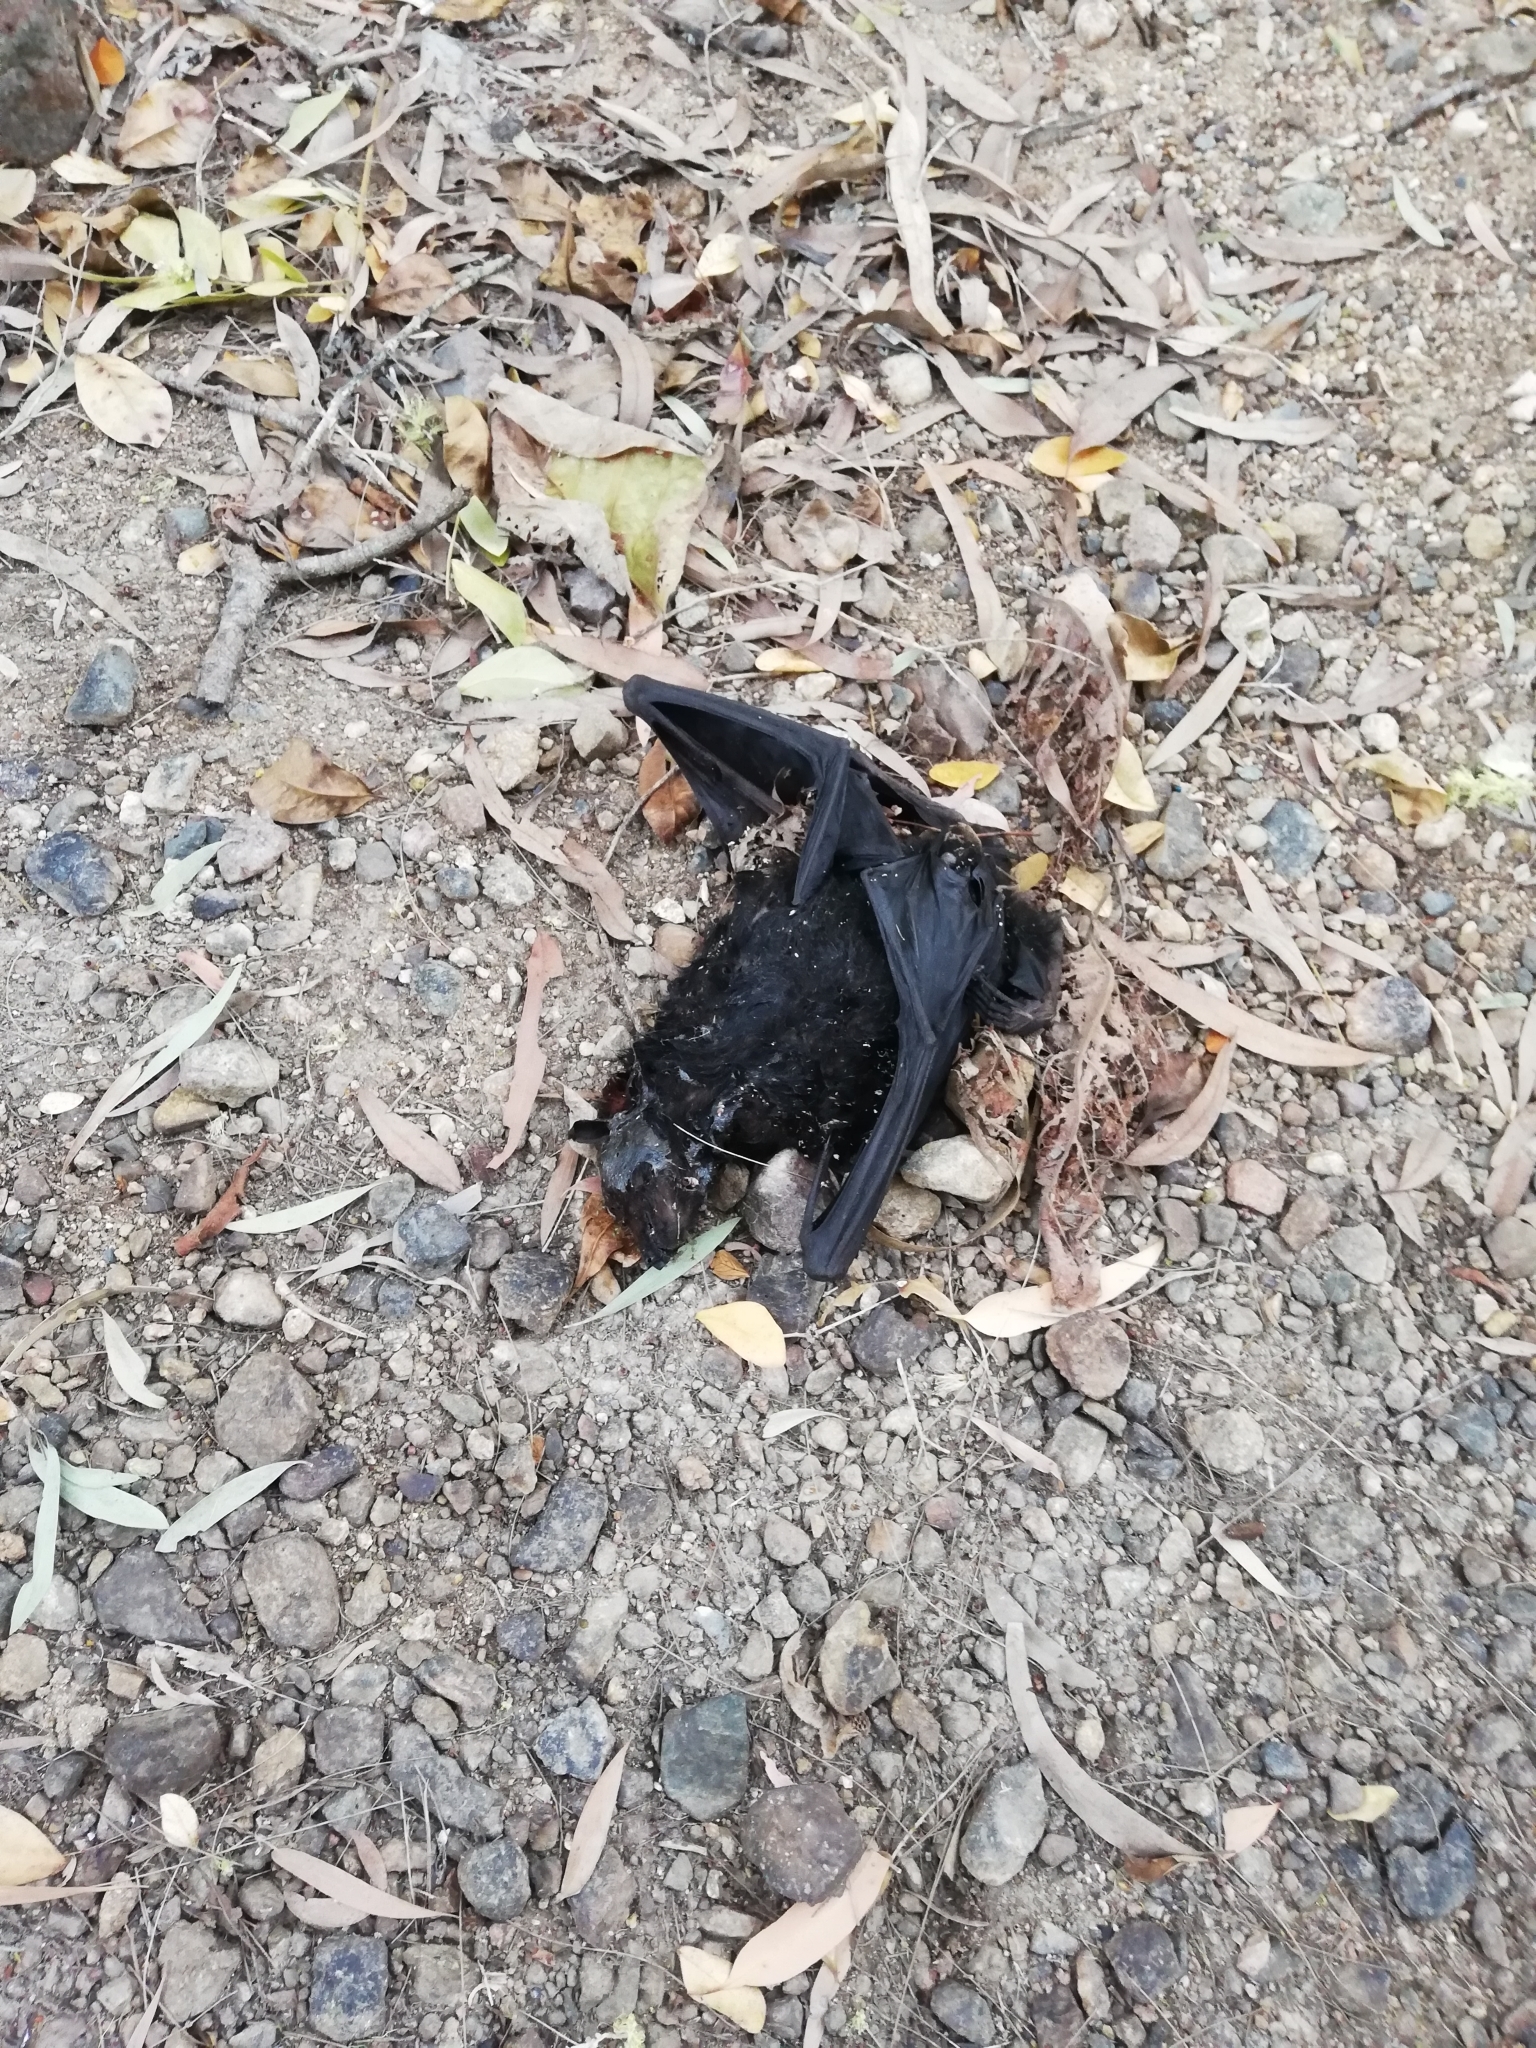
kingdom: Animalia
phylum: Chordata
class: Mammalia
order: Chiroptera
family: Pteropodidae
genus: Pteropus
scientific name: Pteropus alecto
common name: Black flying fox
